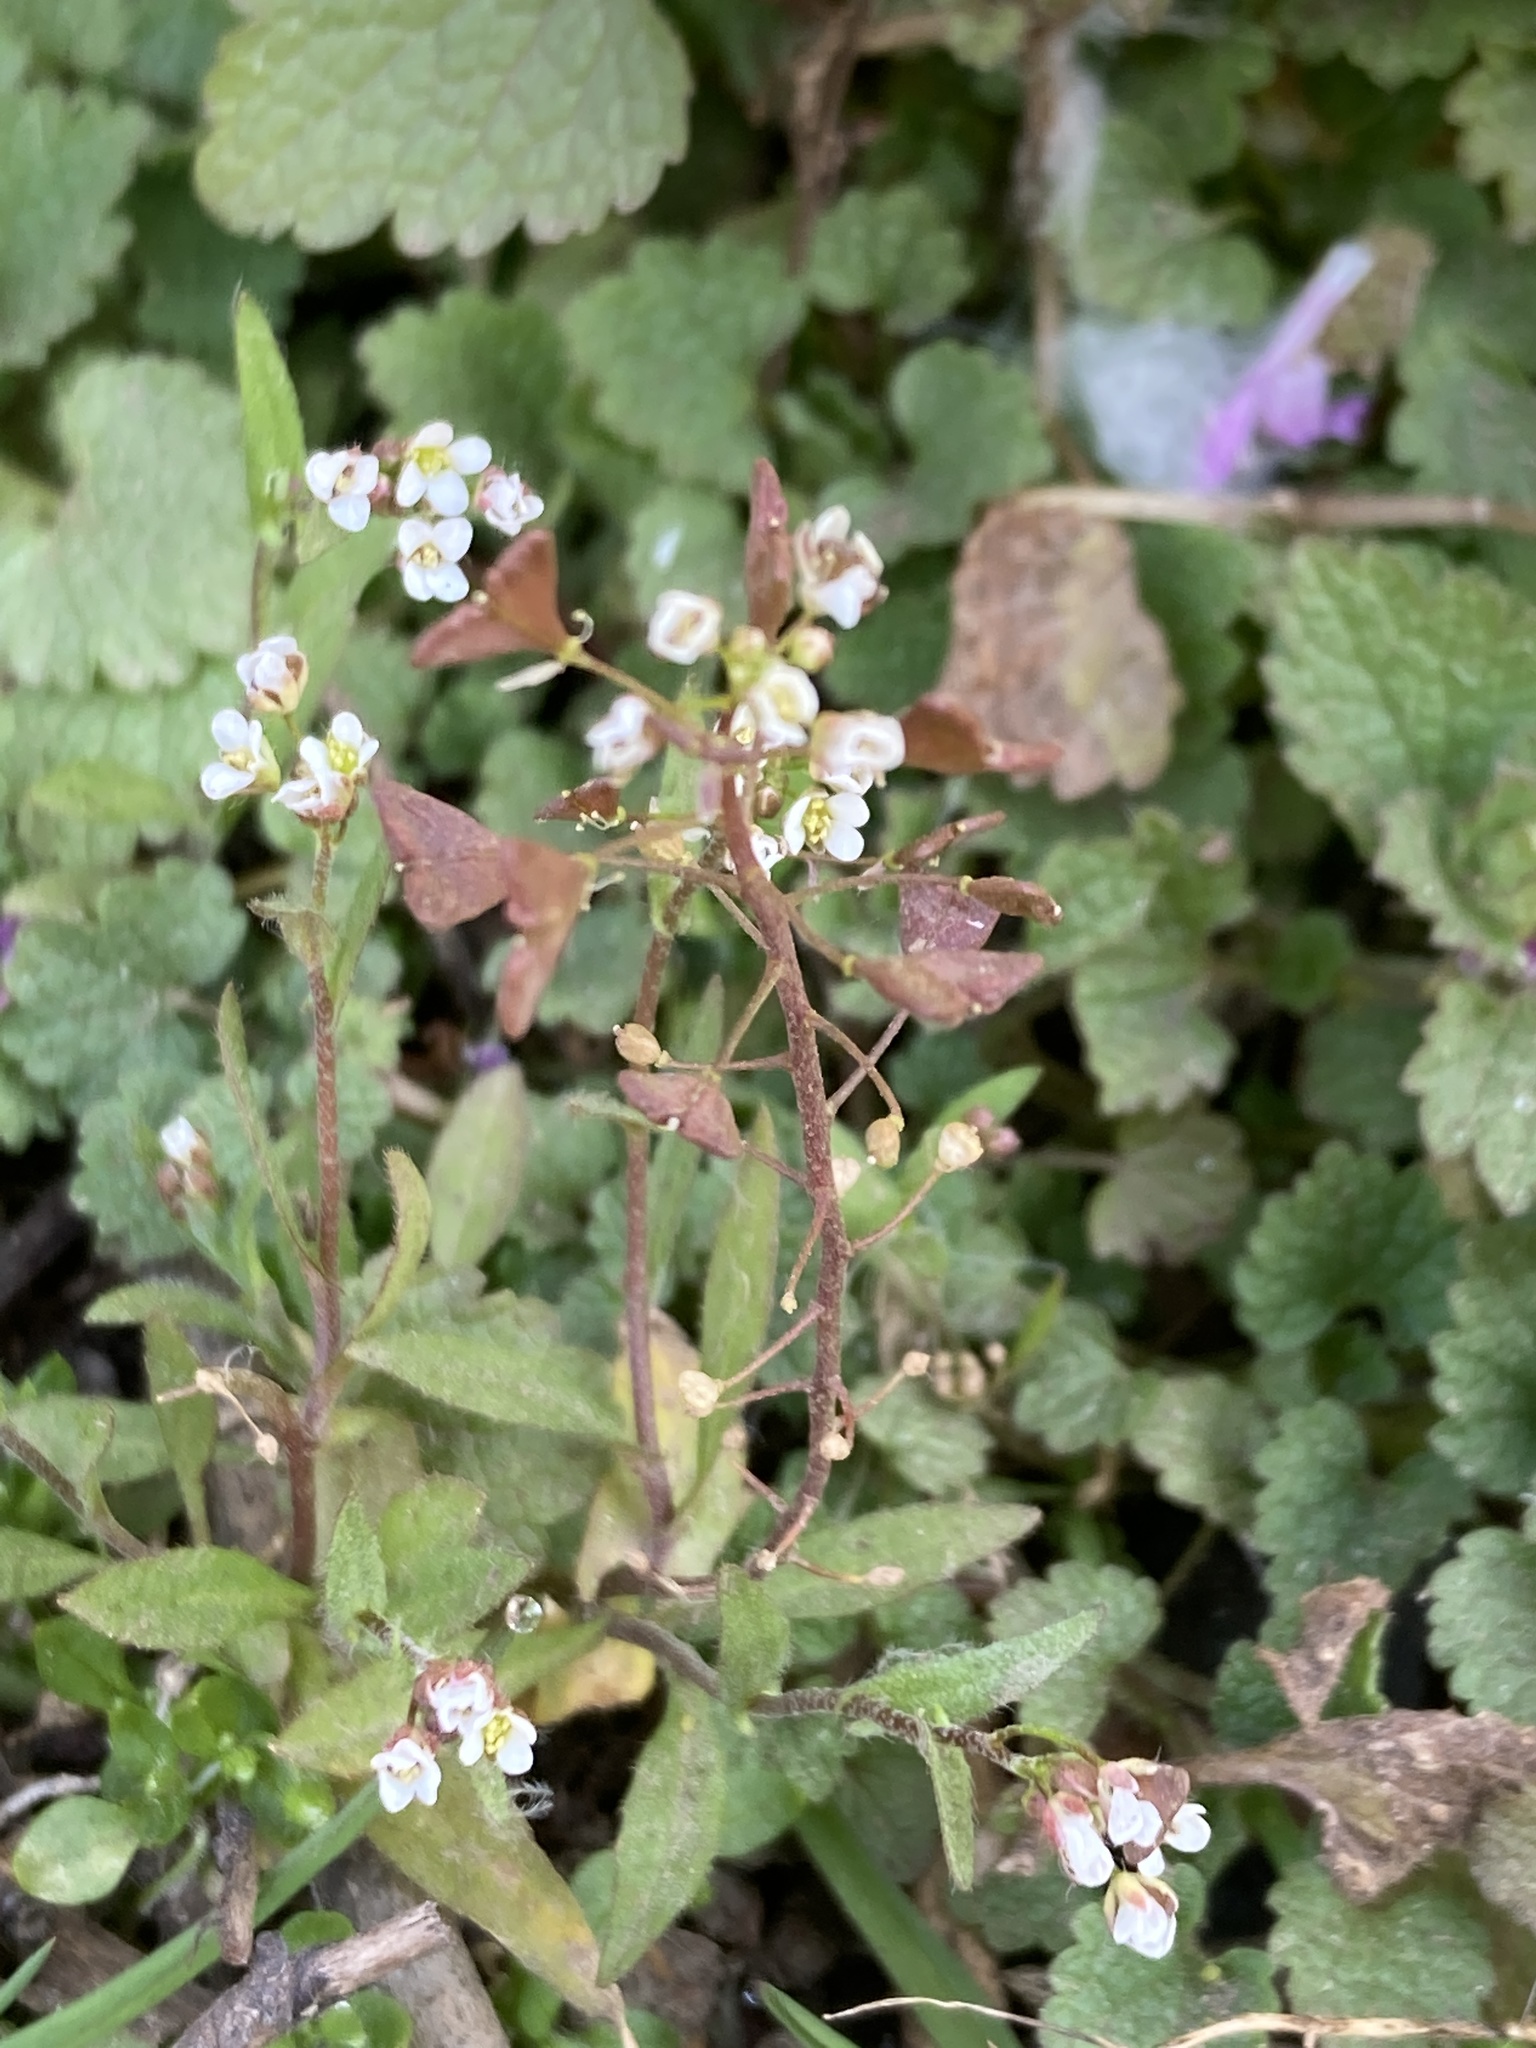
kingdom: Plantae
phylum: Tracheophyta
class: Magnoliopsida
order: Brassicales
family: Brassicaceae
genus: Capsella
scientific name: Capsella bursa-pastoris
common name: Shepherd's purse
